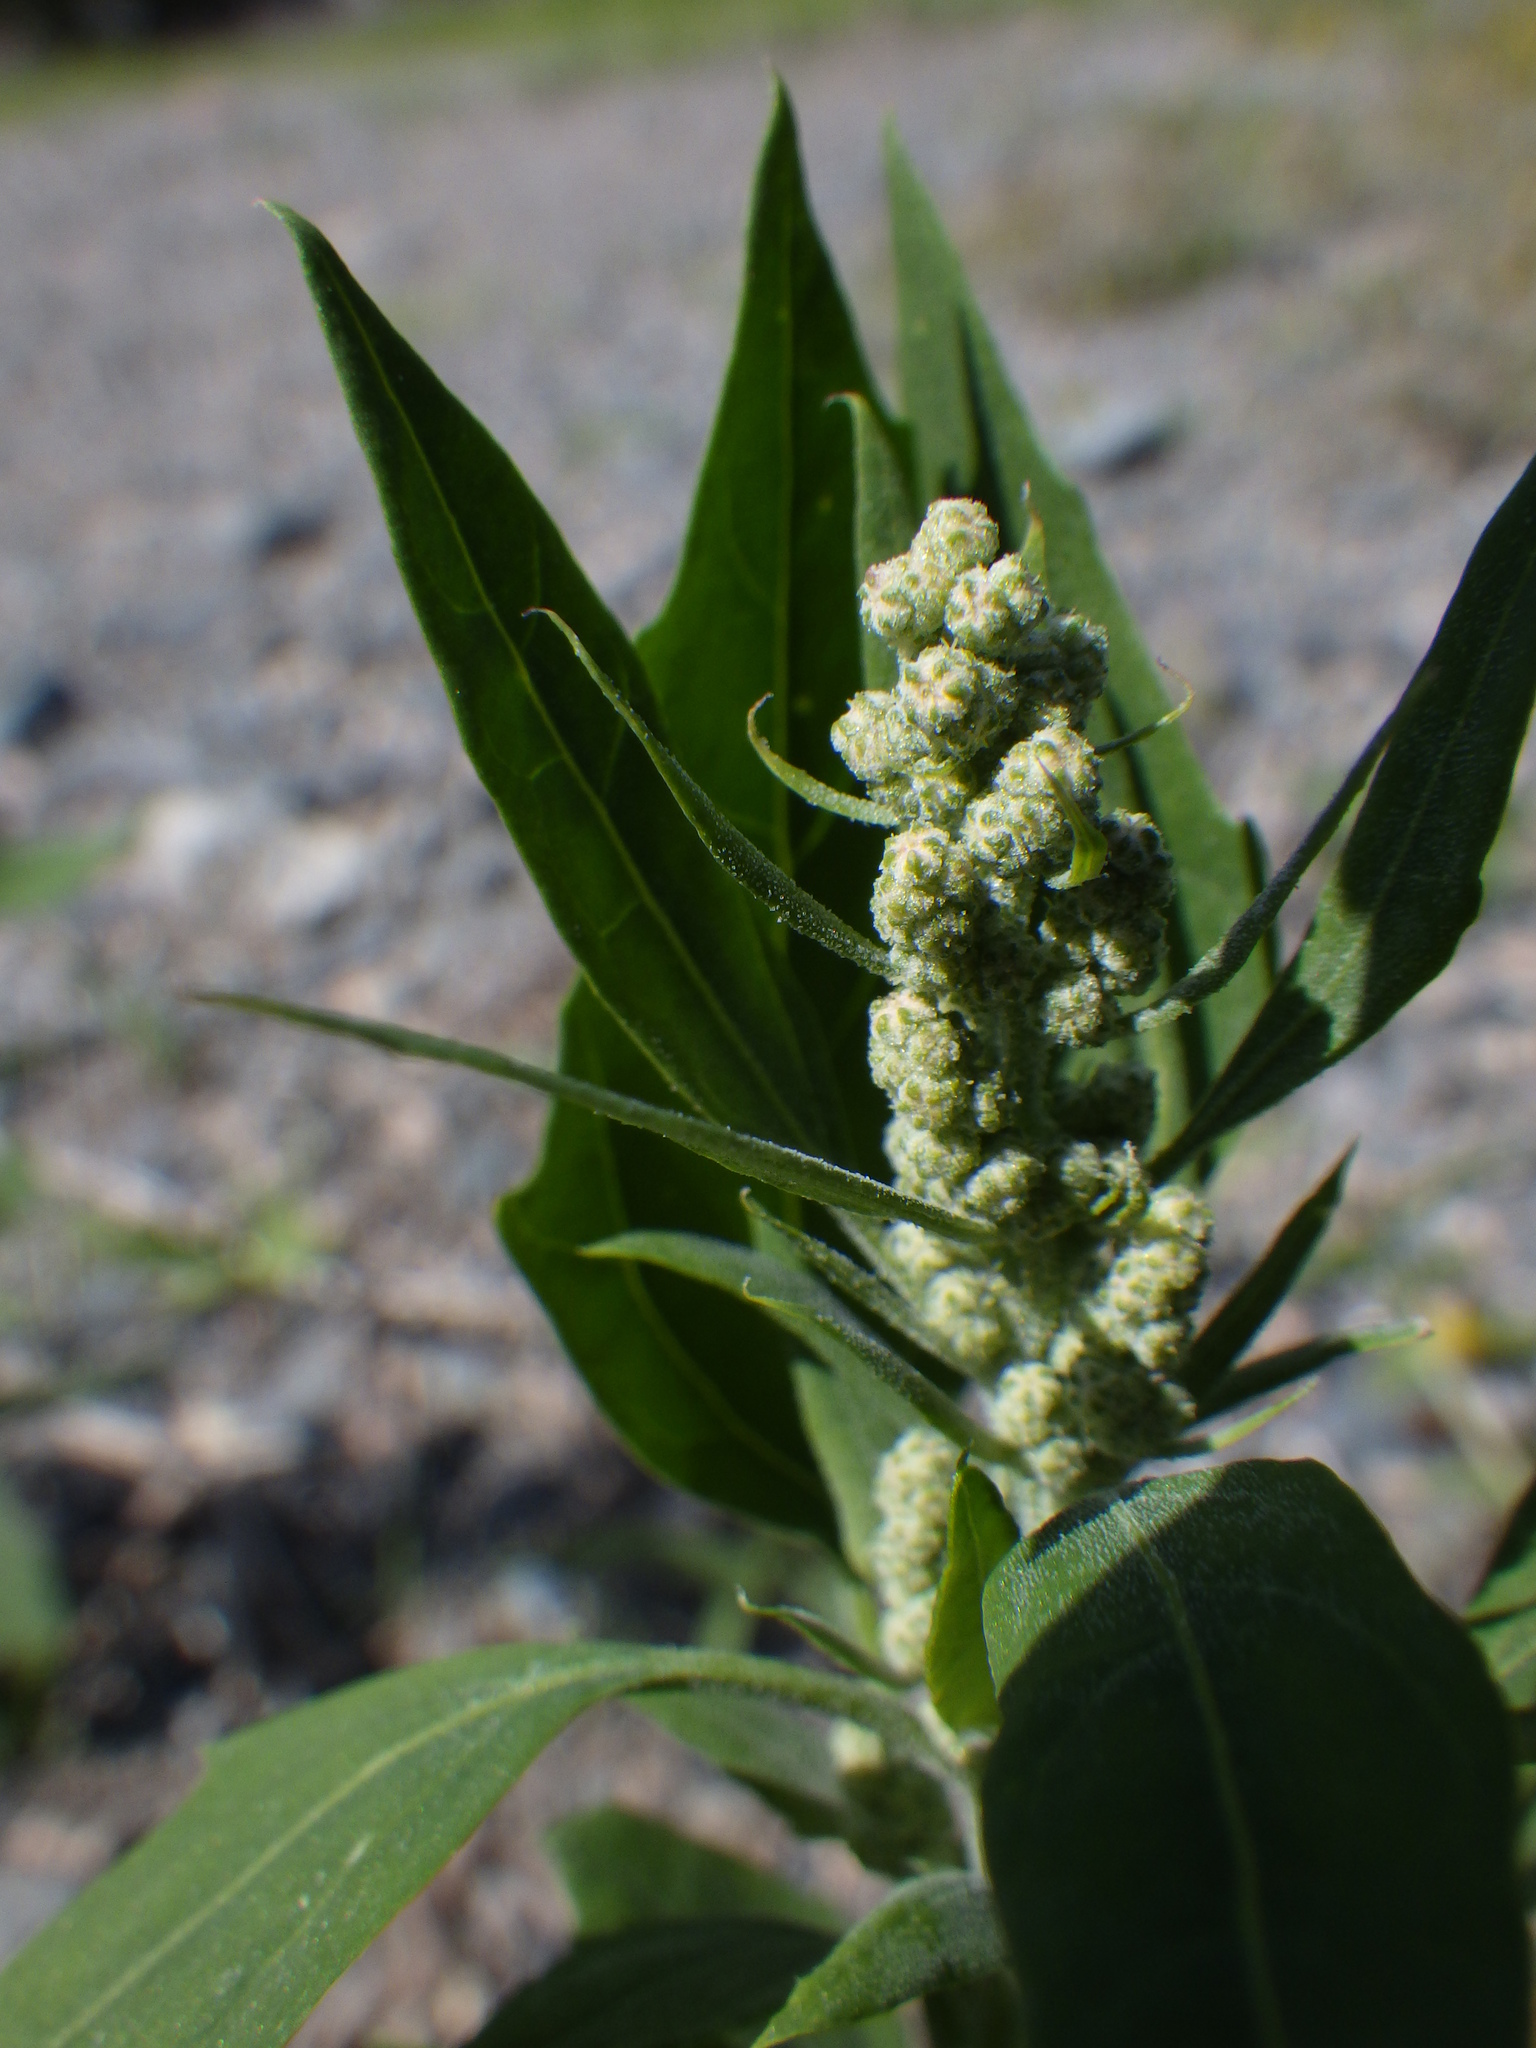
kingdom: Plantae
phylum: Tracheophyta
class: Magnoliopsida
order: Caryophyllales
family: Amaranthaceae
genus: Chenopodium
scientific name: Chenopodium album
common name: Fat-hen
